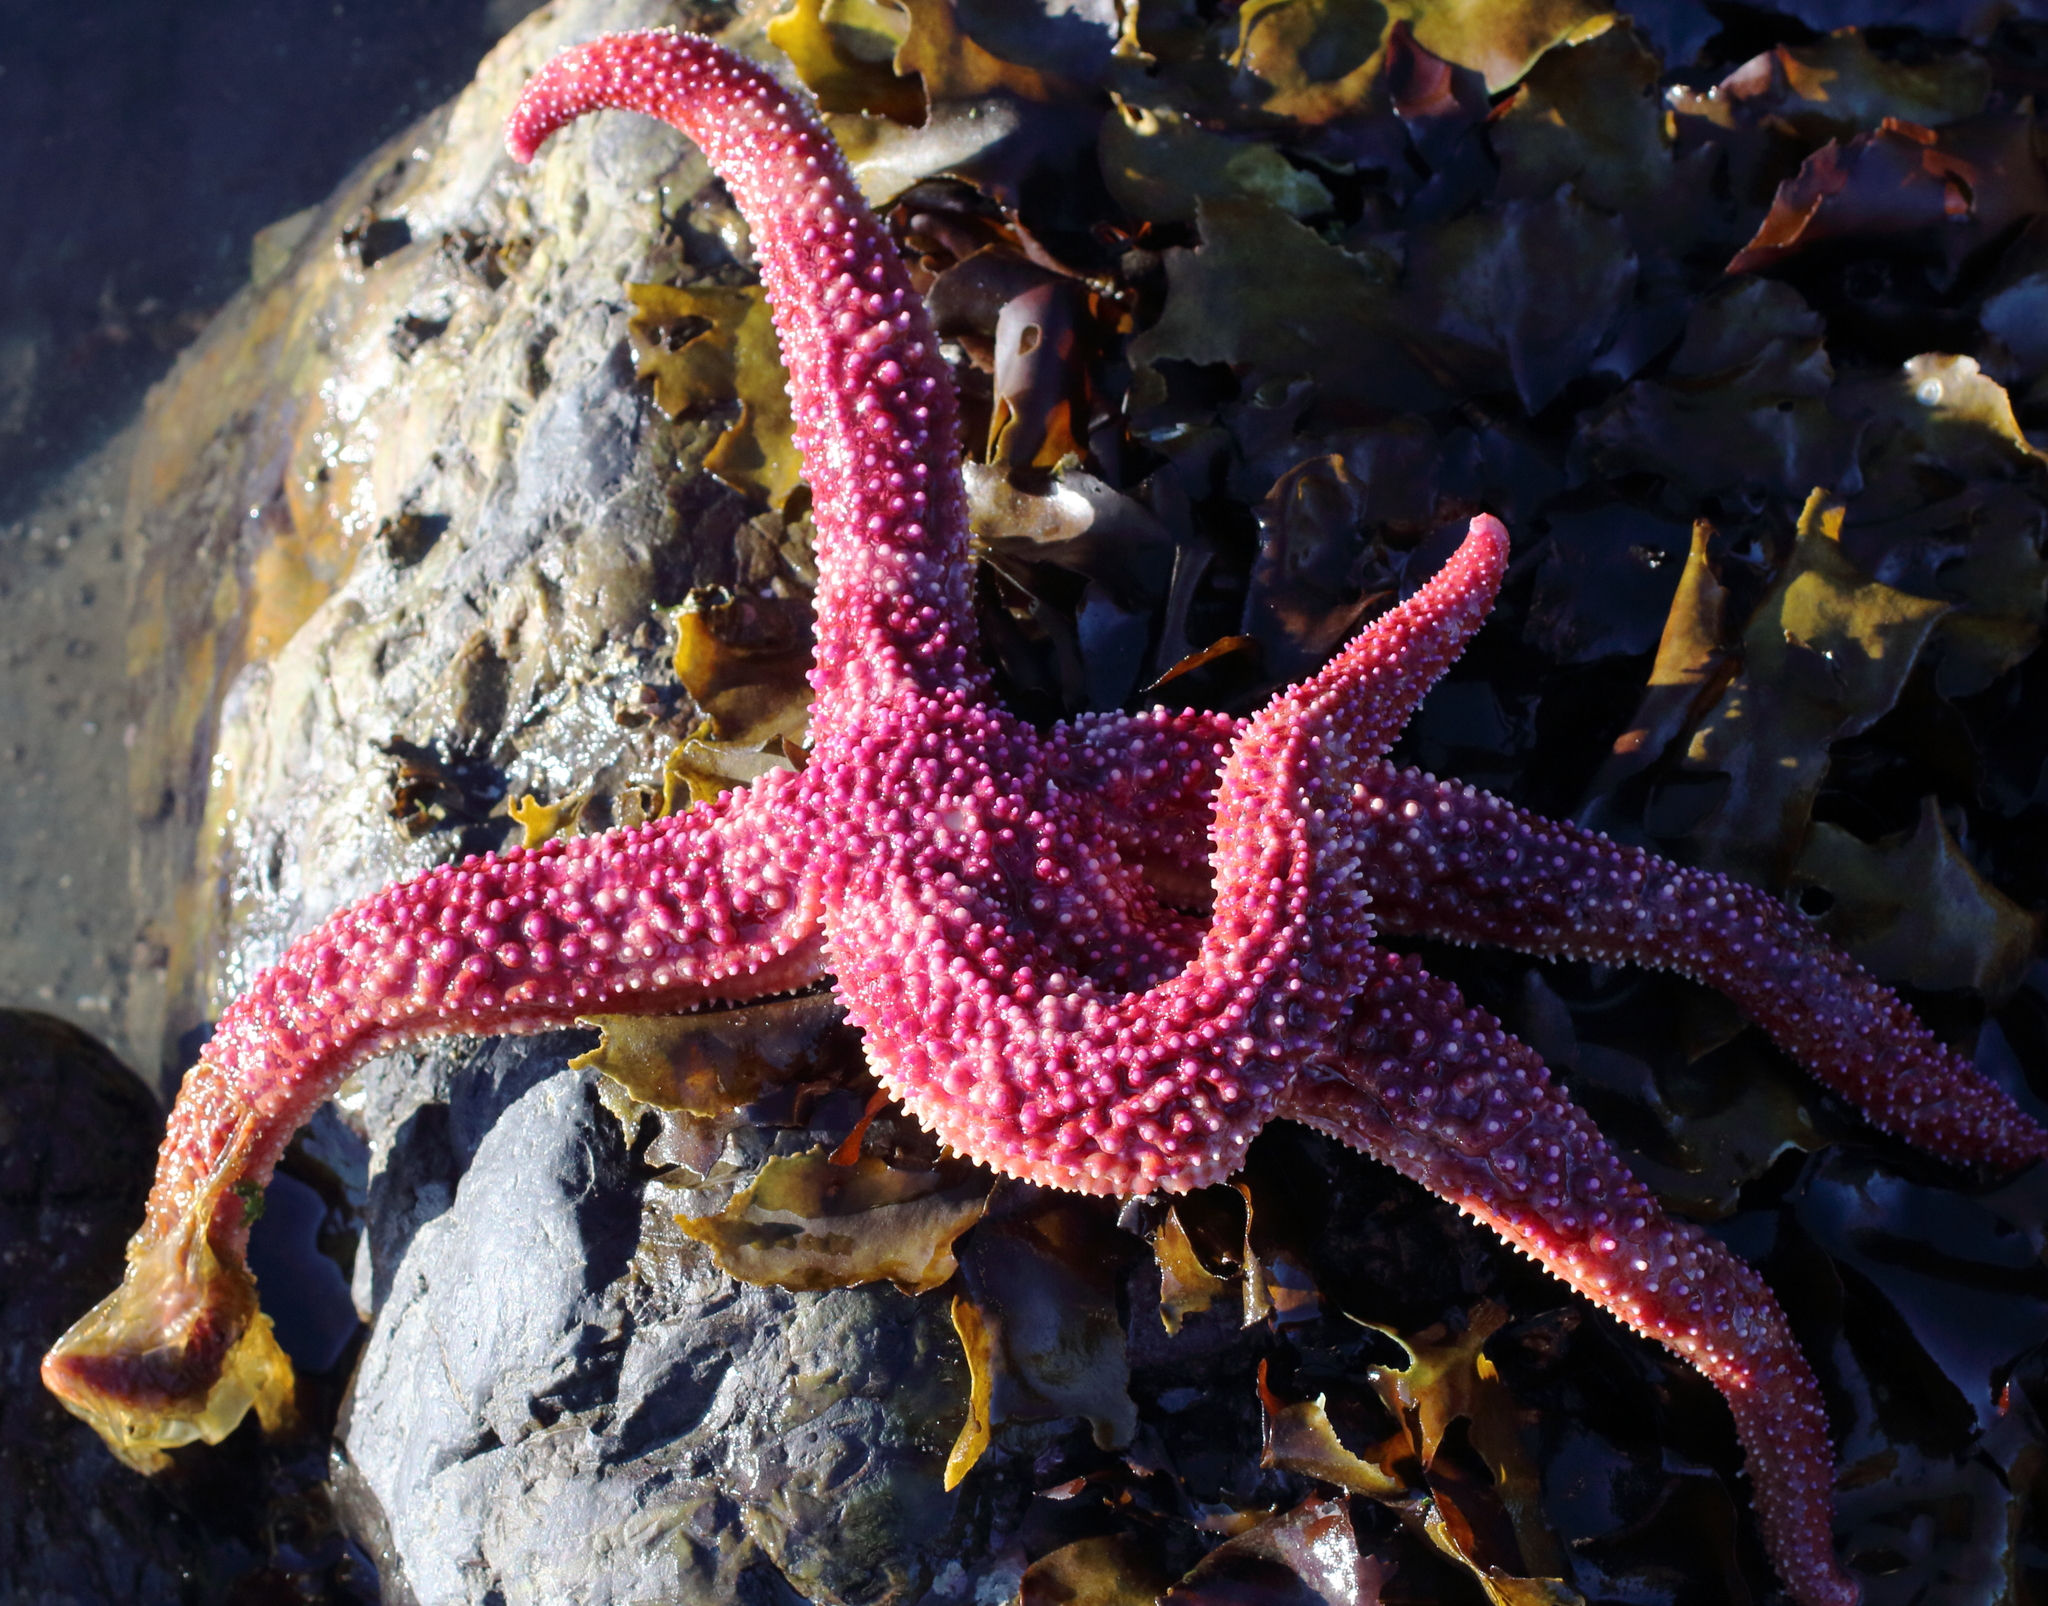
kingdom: Animalia
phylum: Echinodermata
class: Asteroidea
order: Forcipulatida
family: Asteriidae
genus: Orthasterias
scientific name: Orthasterias koehleri
